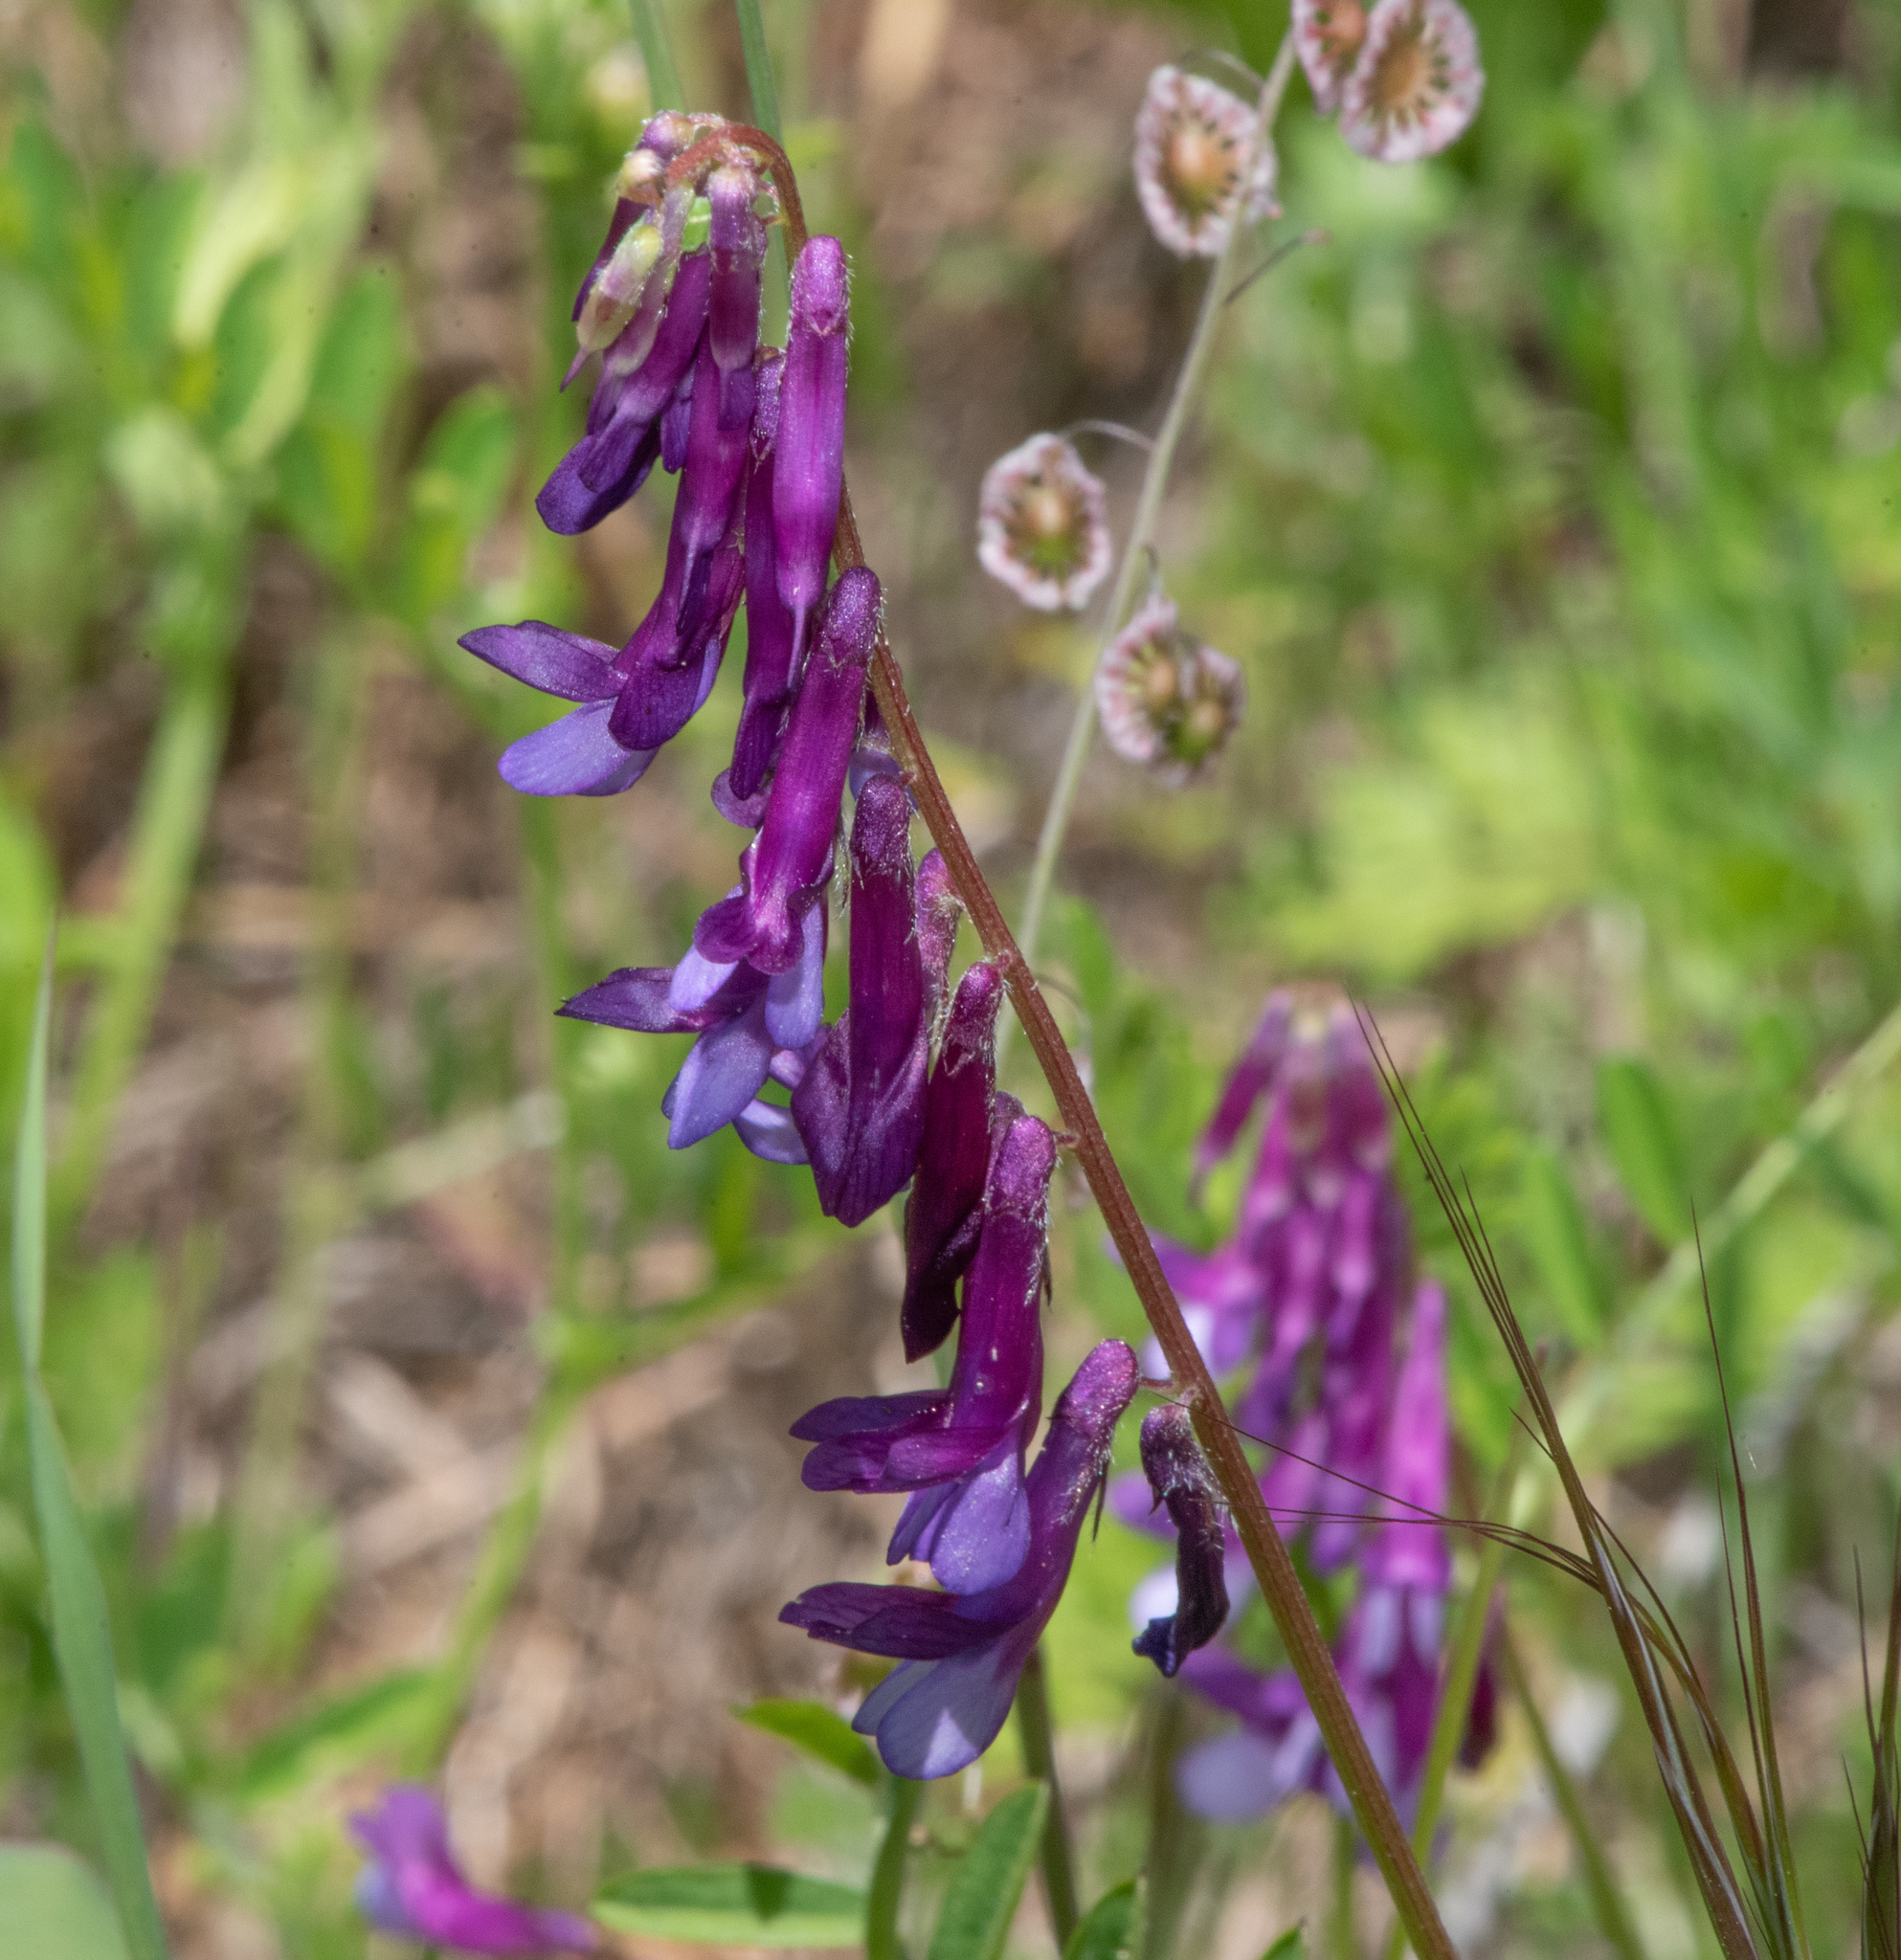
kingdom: Plantae
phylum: Tracheophyta
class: Magnoliopsida
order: Fabales
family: Fabaceae
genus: Vicia
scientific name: Vicia villosa
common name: Fodder vetch
